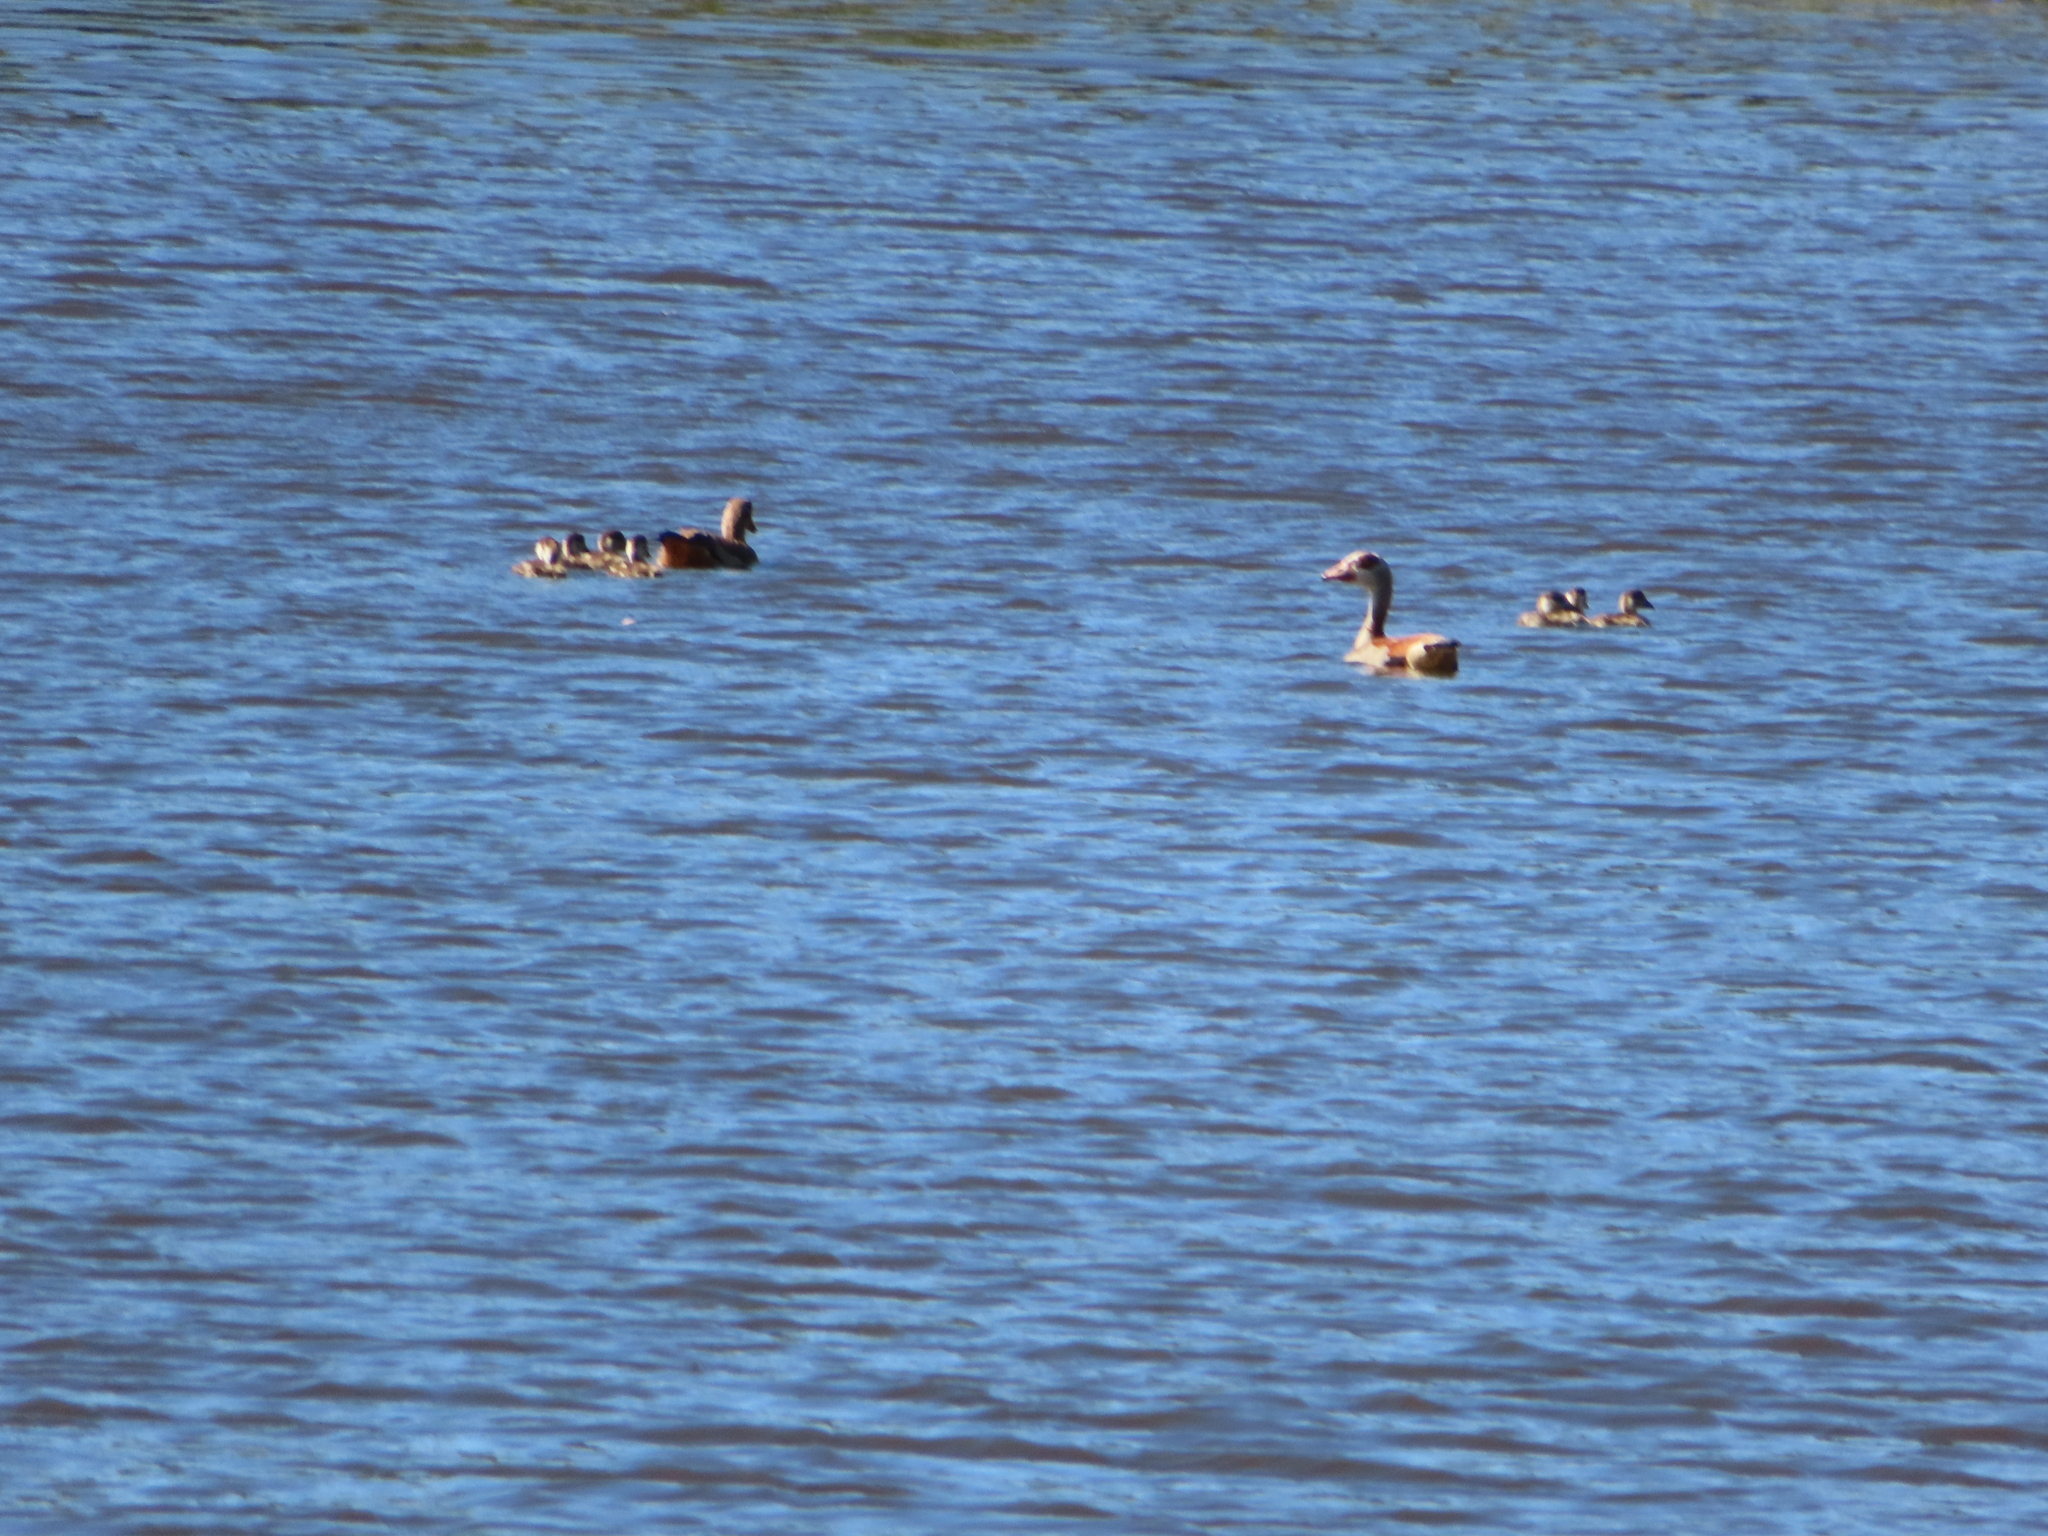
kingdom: Animalia
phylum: Chordata
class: Aves
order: Anseriformes
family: Anatidae
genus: Alopochen
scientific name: Alopochen aegyptiaca
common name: Egyptian goose
